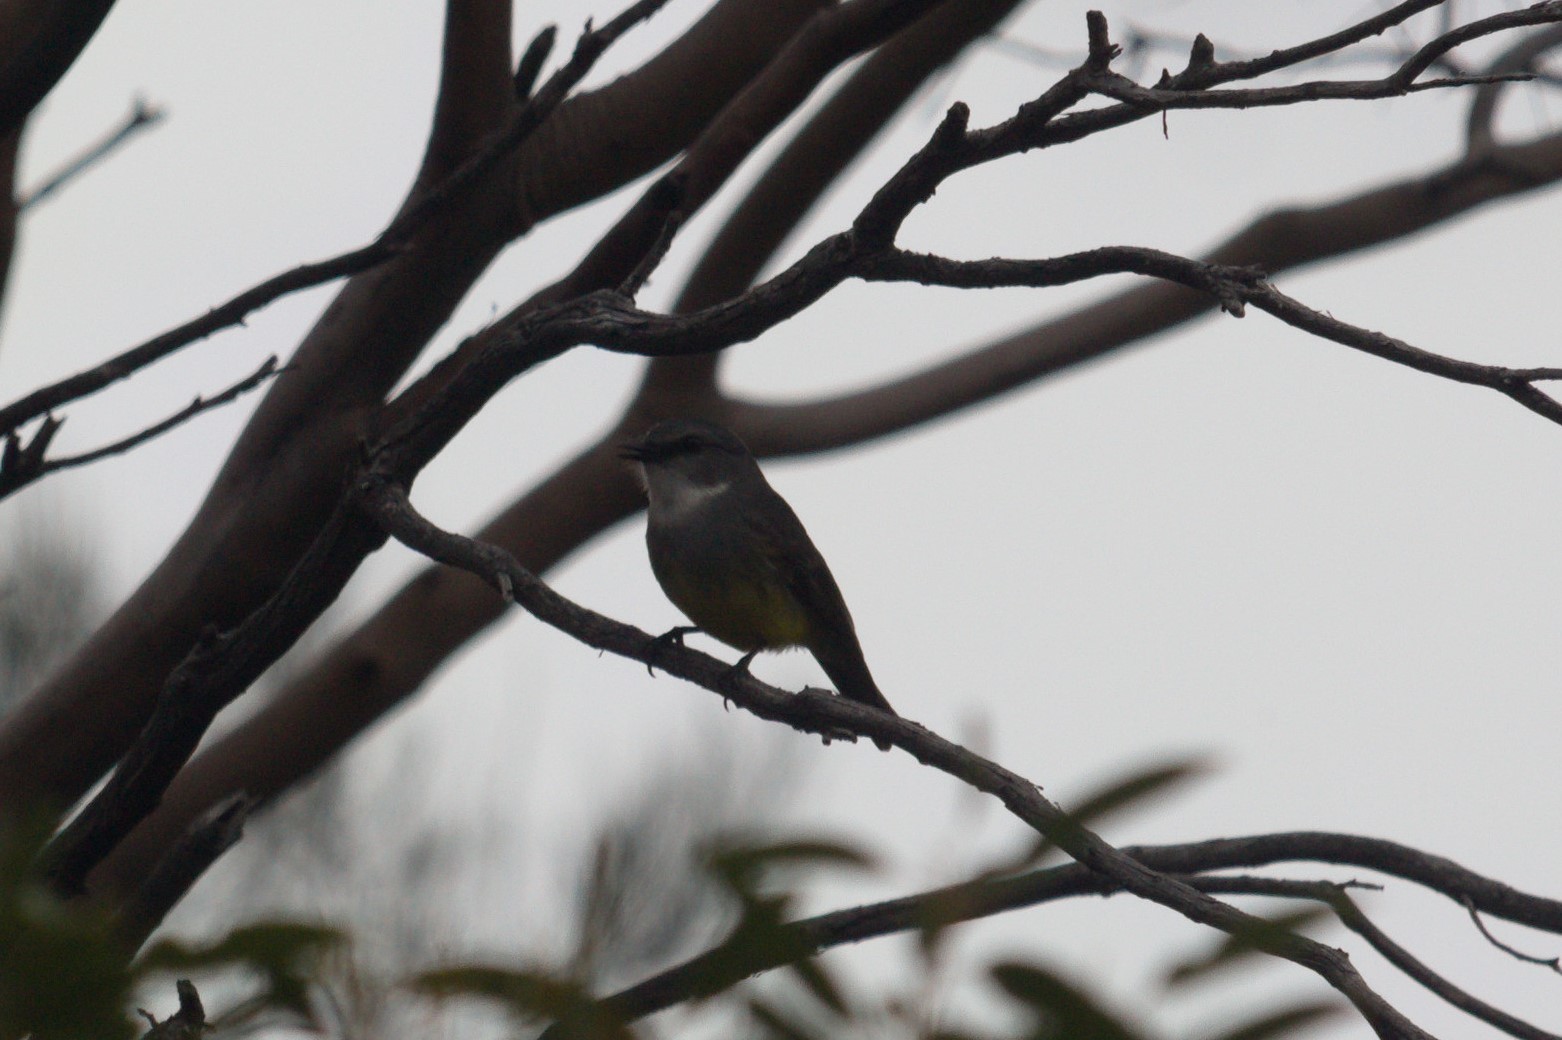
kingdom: Animalia
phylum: Chordata
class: Aves
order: Passeriformes
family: Petroicidae
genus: Eopsaltria
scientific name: Eopsaltria griseogularis
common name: Western yellow robin
